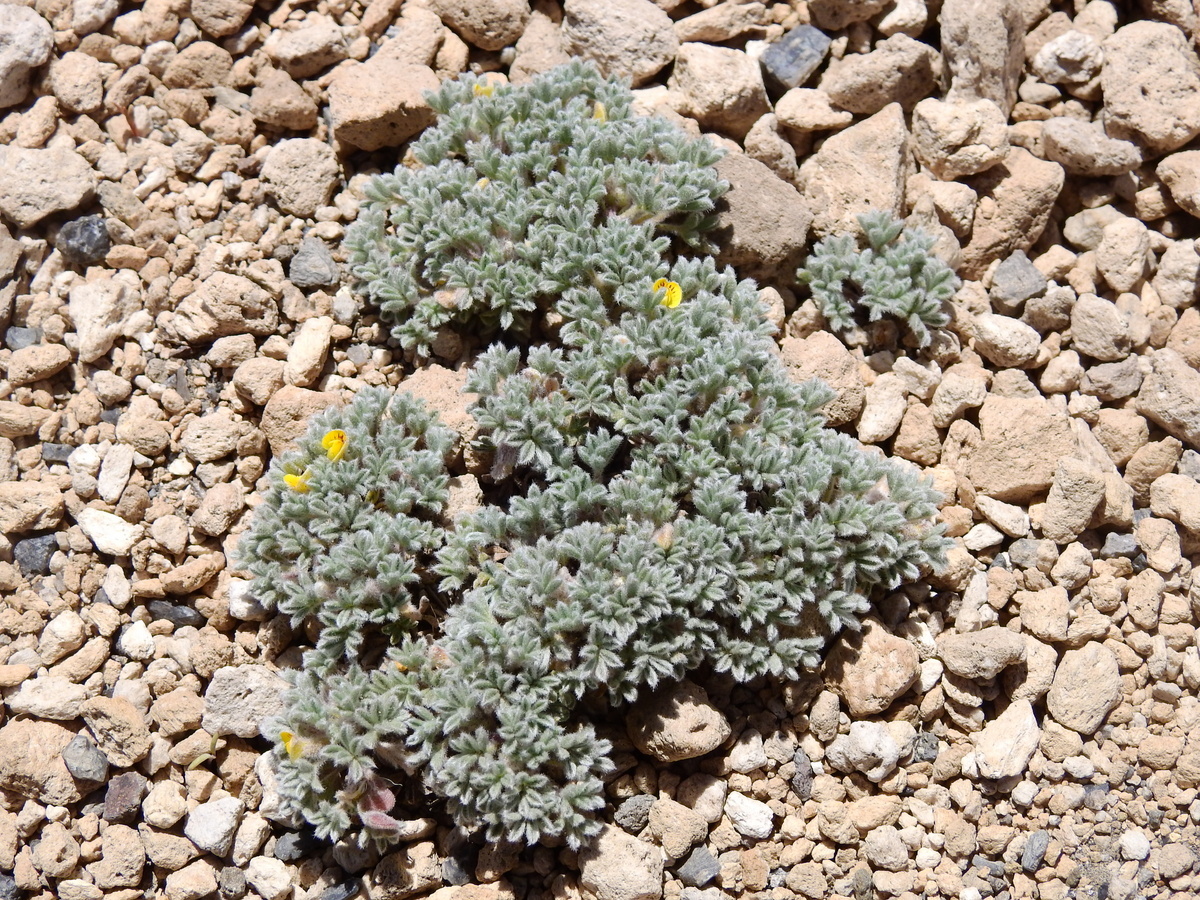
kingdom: Plantae
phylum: Tracheophyta
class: Magnoliopsida
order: Fabales
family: Fabaceae
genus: Adesmia
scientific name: Adesmia glomerula
